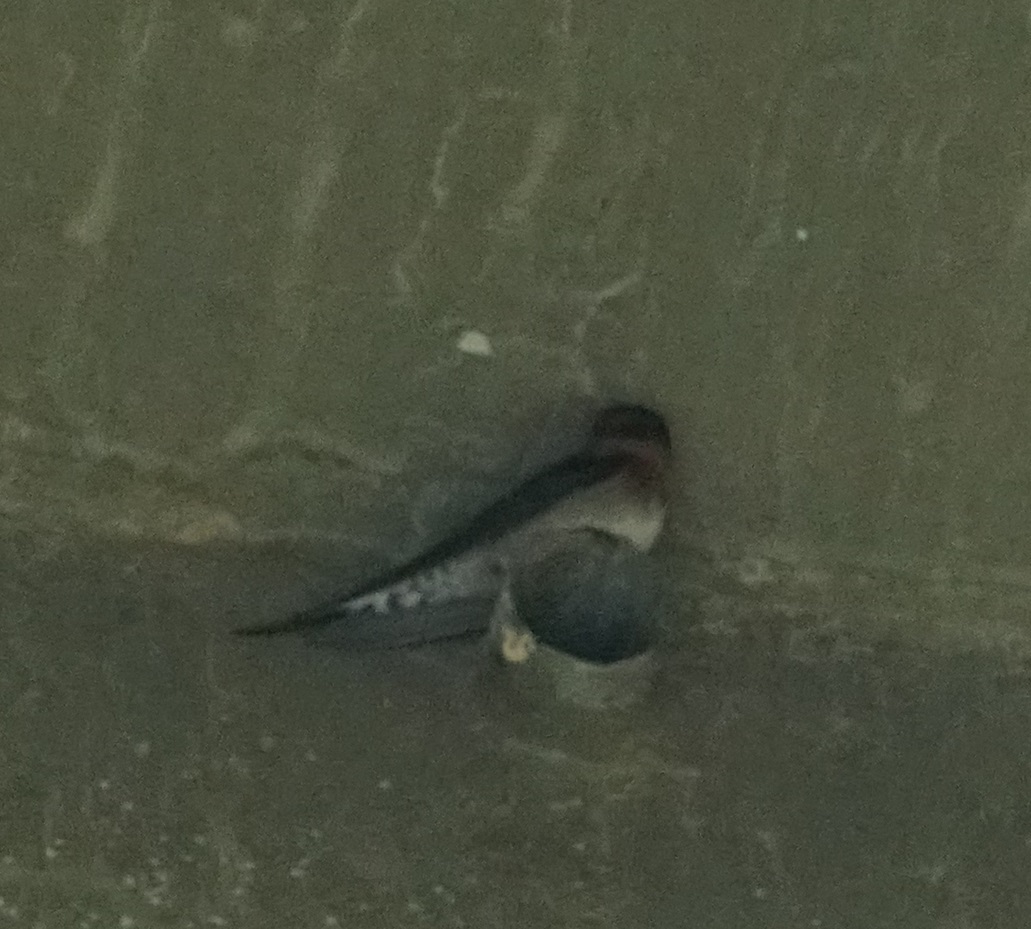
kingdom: Animalia
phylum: Chordata
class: Aves
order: Passeriformes
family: Hirundinidae
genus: Hirundo
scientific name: Hirundo neoxena
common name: Welcome swallow
